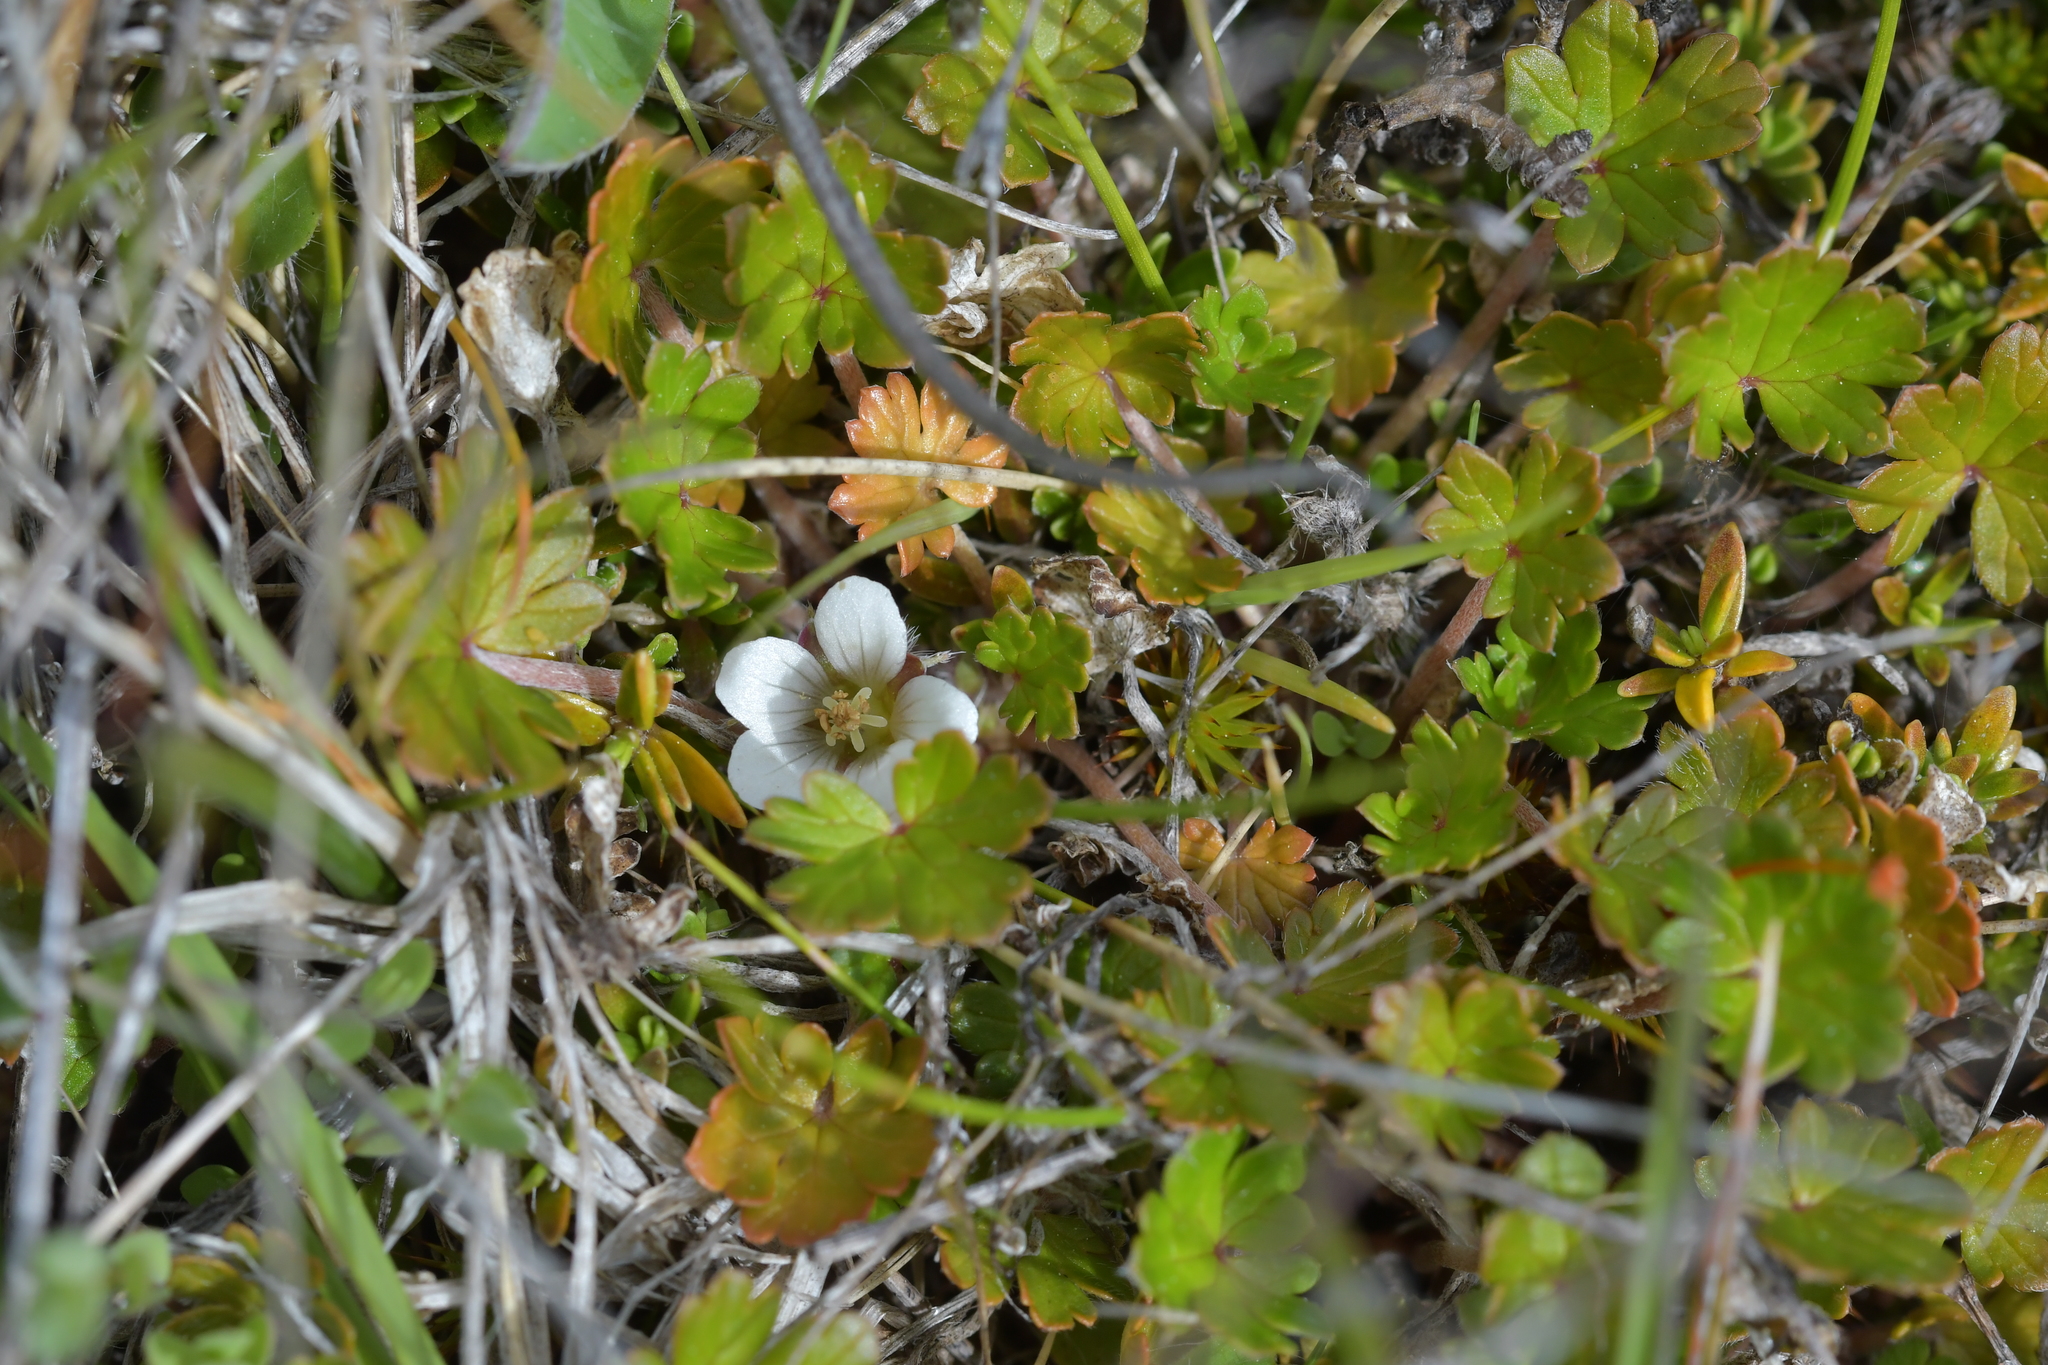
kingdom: Plantae
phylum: Tracheophyta
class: Magnoliopsida
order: Geraniales
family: Geraniaceae
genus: Geranium
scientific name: Geranium brevicaule
